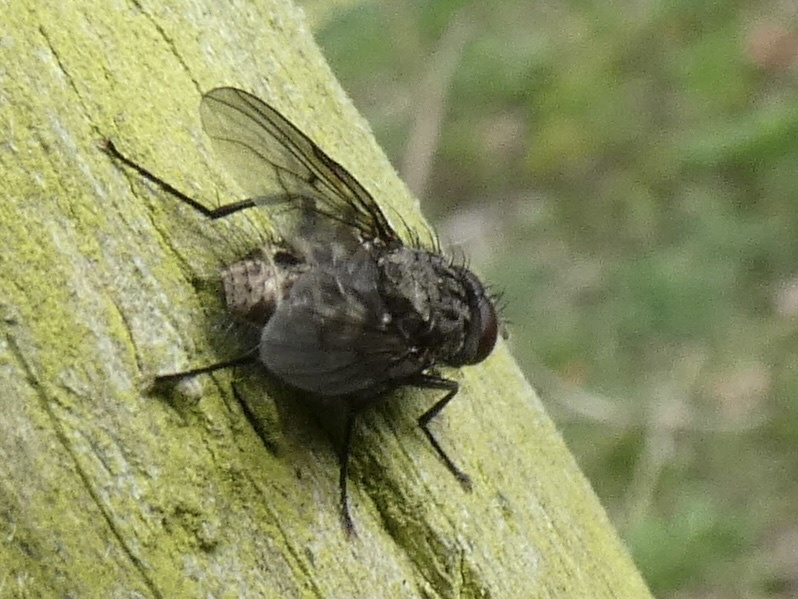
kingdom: Animalia
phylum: Arthropoda
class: Insecta
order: Diptera
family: Muscidae
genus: Helina
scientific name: Helina evecta
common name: Muscid fly
